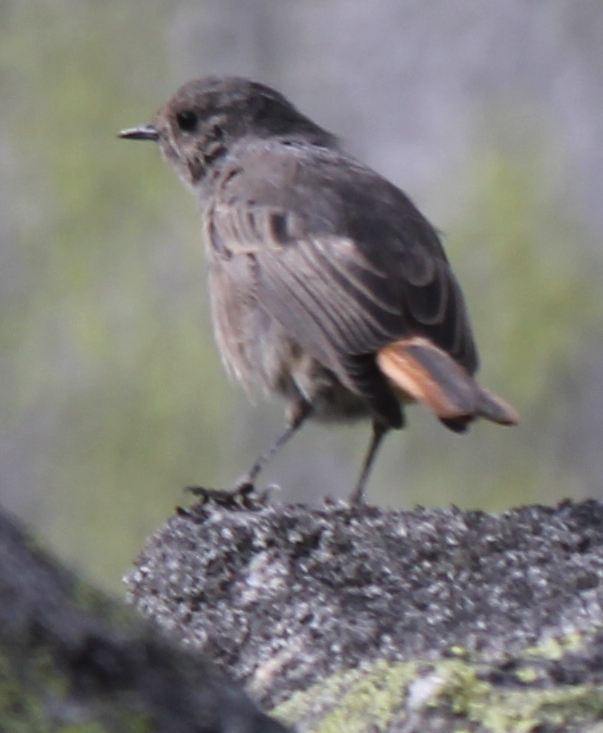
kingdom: Animalia
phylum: Chordata
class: Aves
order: Passeriformes
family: Muscicapidae
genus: Phoenicurus
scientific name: Phoenicurus ochruros
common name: Black redstart
